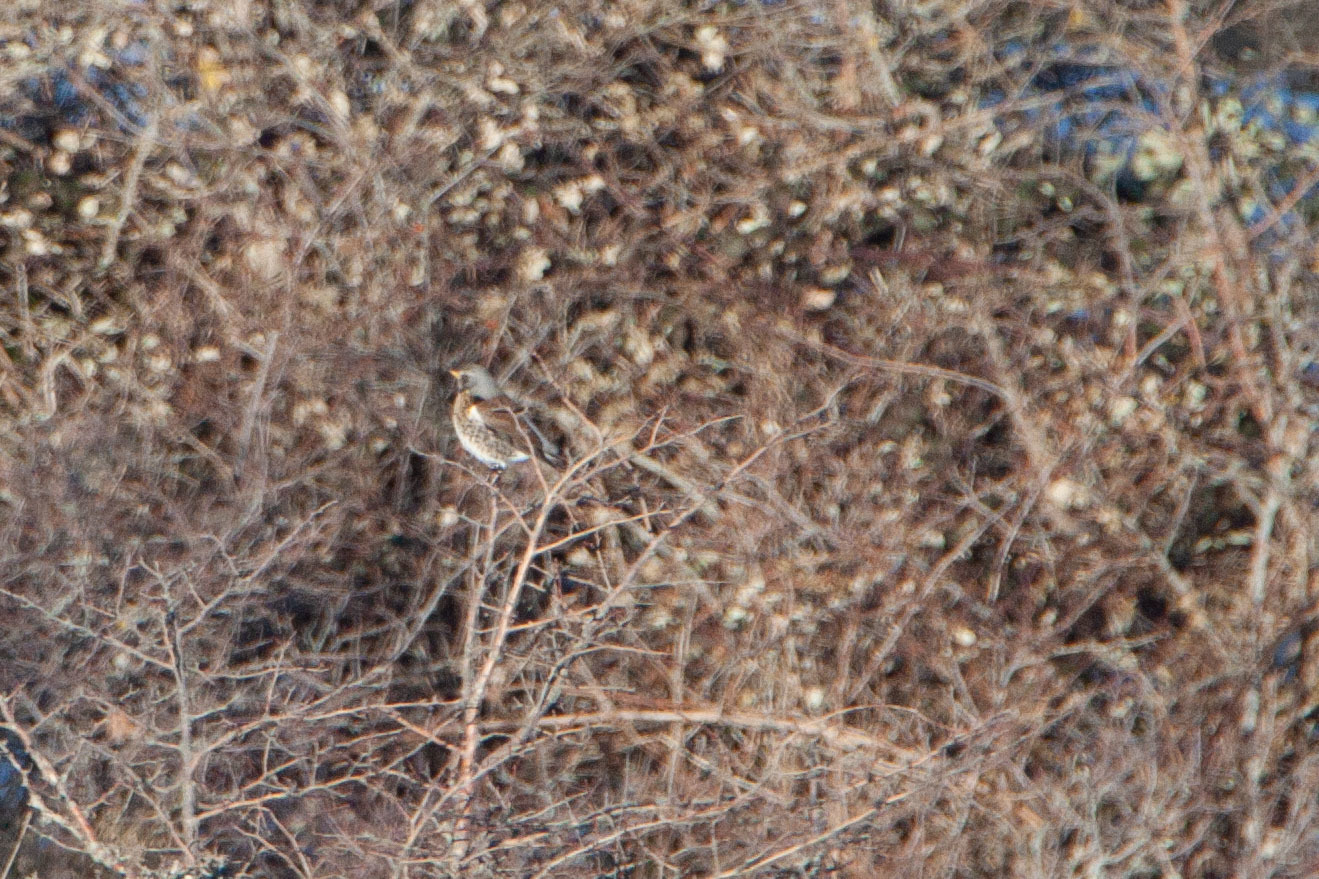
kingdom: Animalia
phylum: Chordata
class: Aves
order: Passeriformes
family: Turdidae
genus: Turdus
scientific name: Turdus pilaris
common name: Fieldfare
